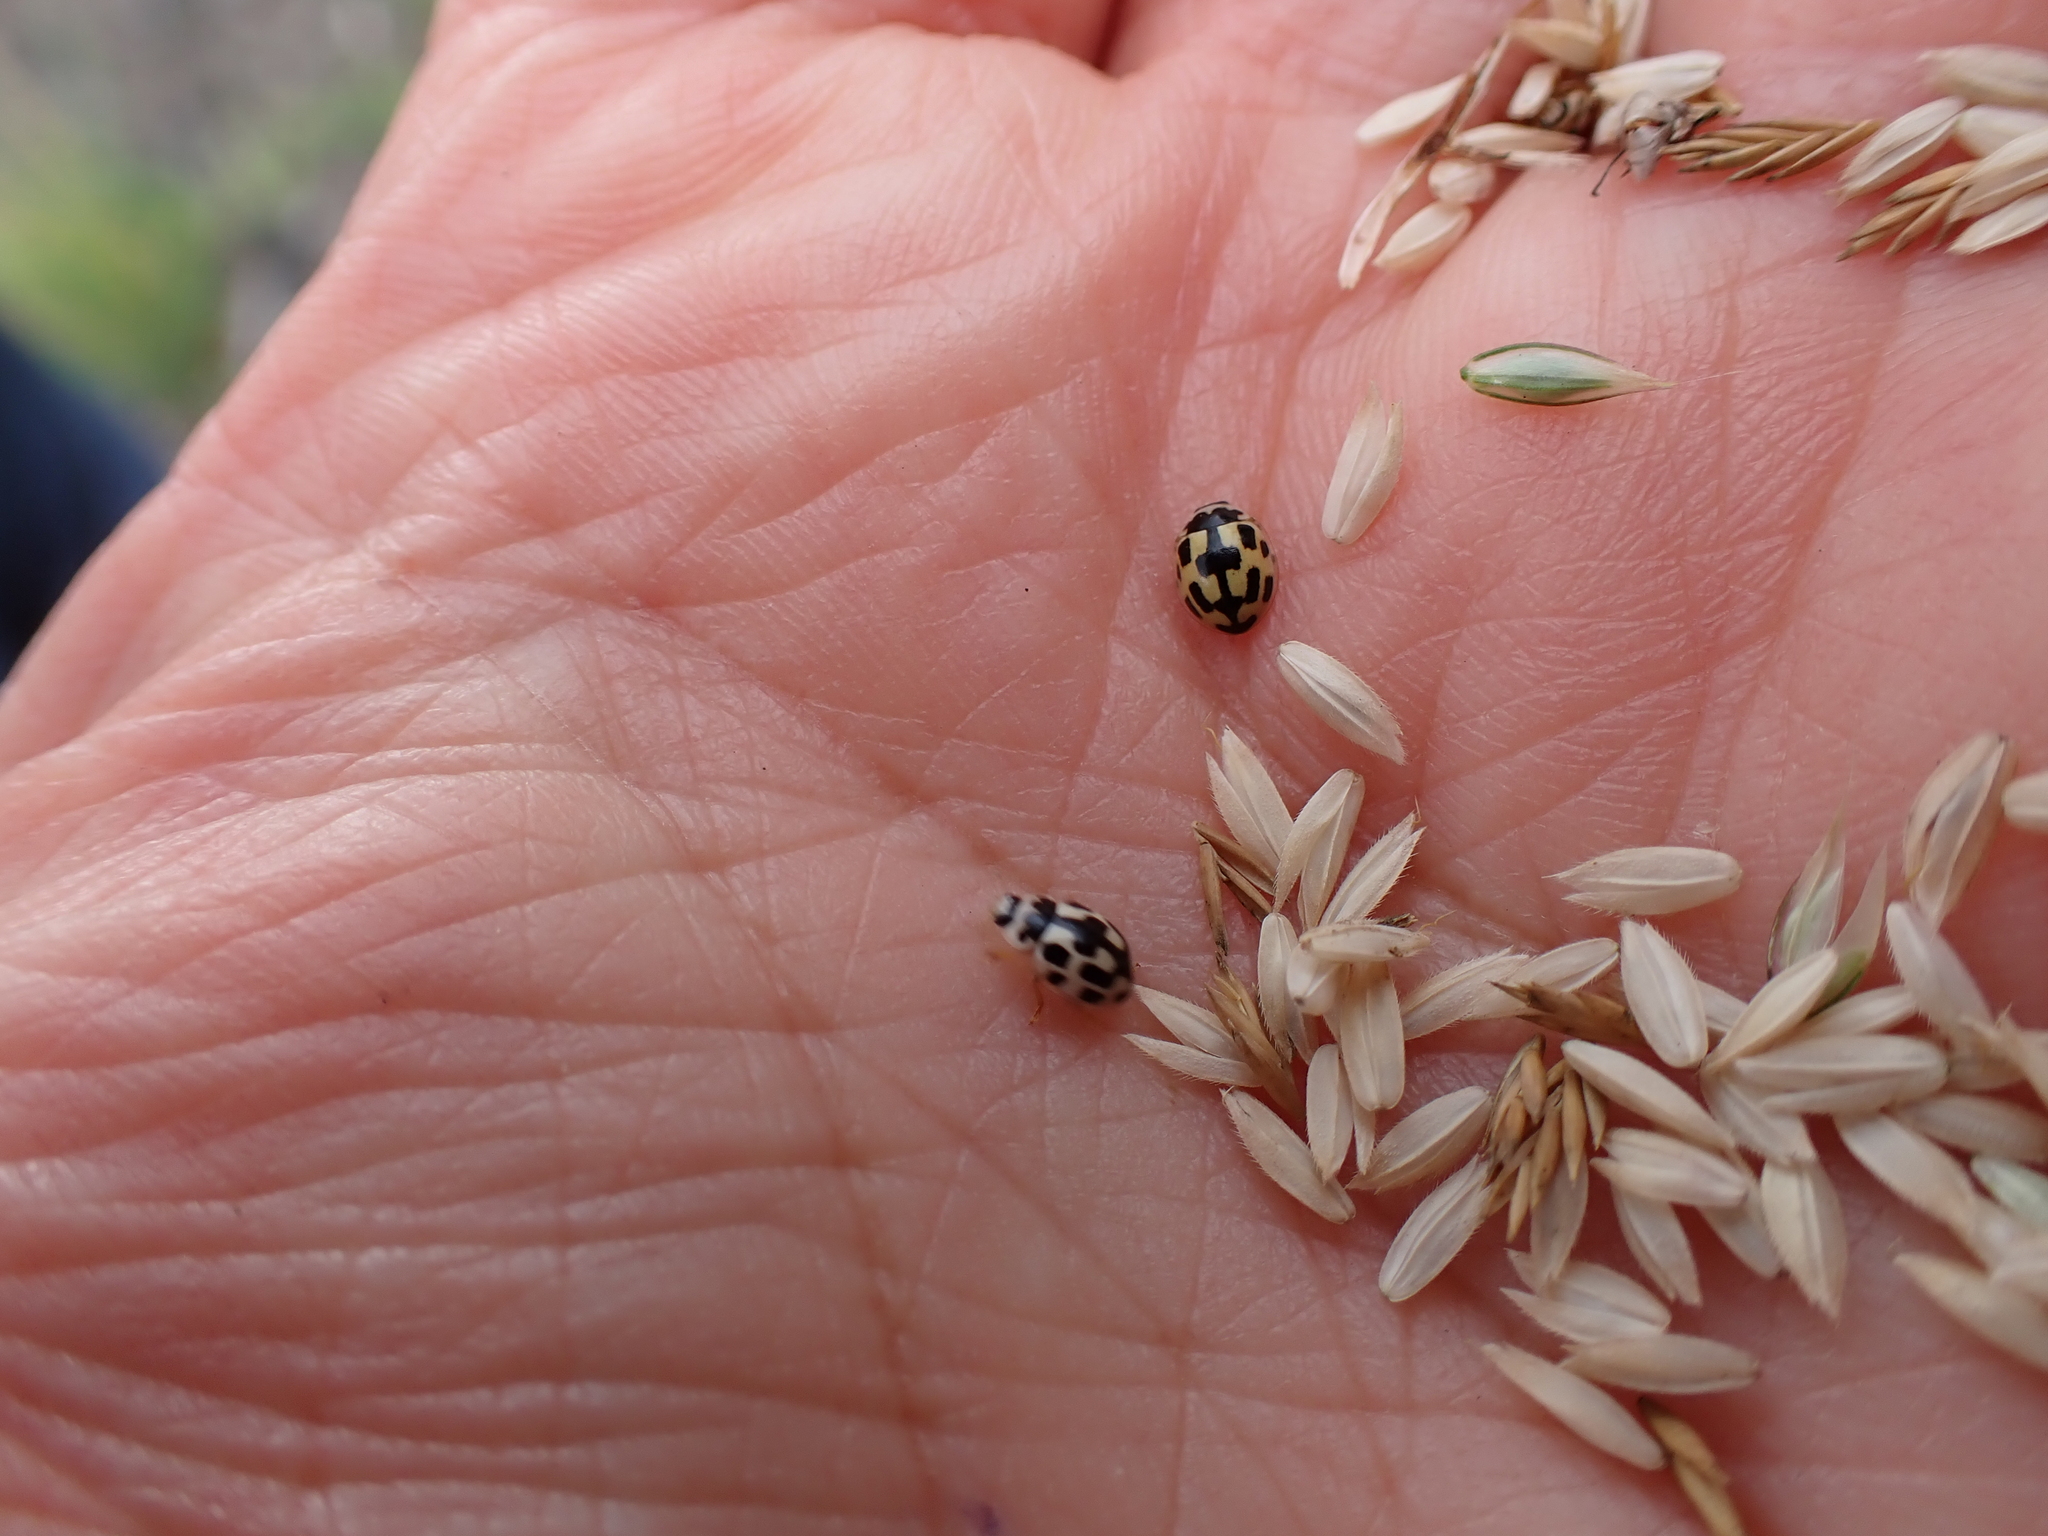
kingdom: Animalia
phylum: Arthropoda
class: Insecta
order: Coleoptera
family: Coccinellidae
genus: Propylaea
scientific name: Propylaea quatuordecimpunctata
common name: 14-spotted ladybird beetle
